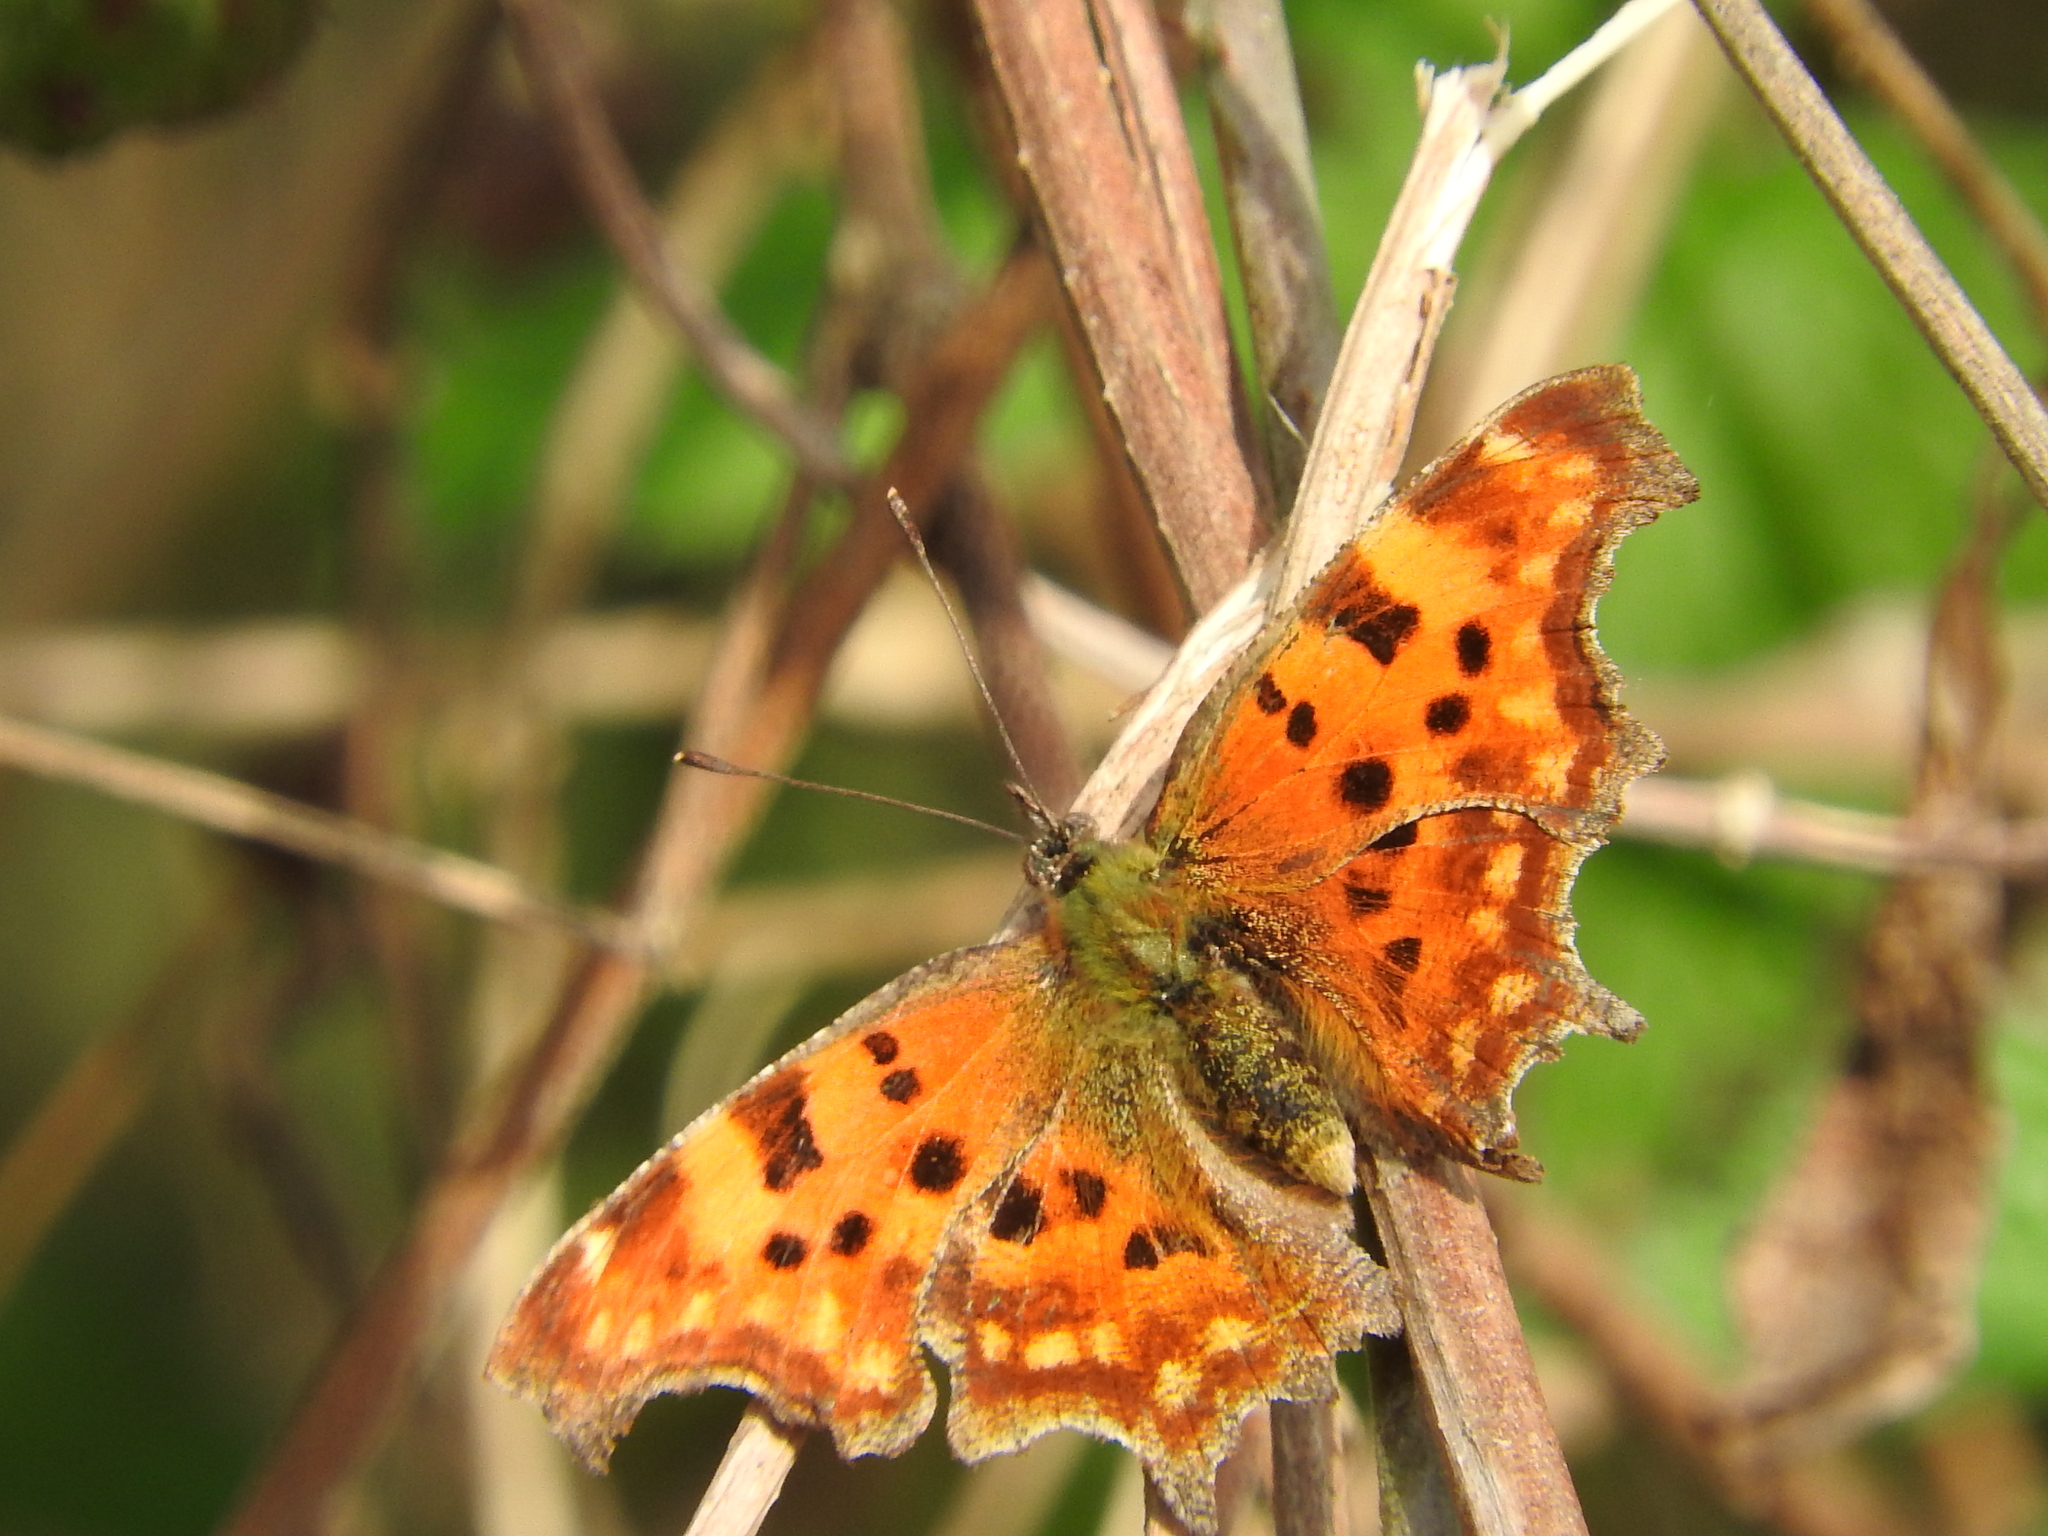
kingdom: Animalia
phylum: Arthropoda
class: Insecta
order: Lepidoptera
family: Nymphalidae
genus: Polygonia
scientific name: Polygonia c-album
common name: Comma
